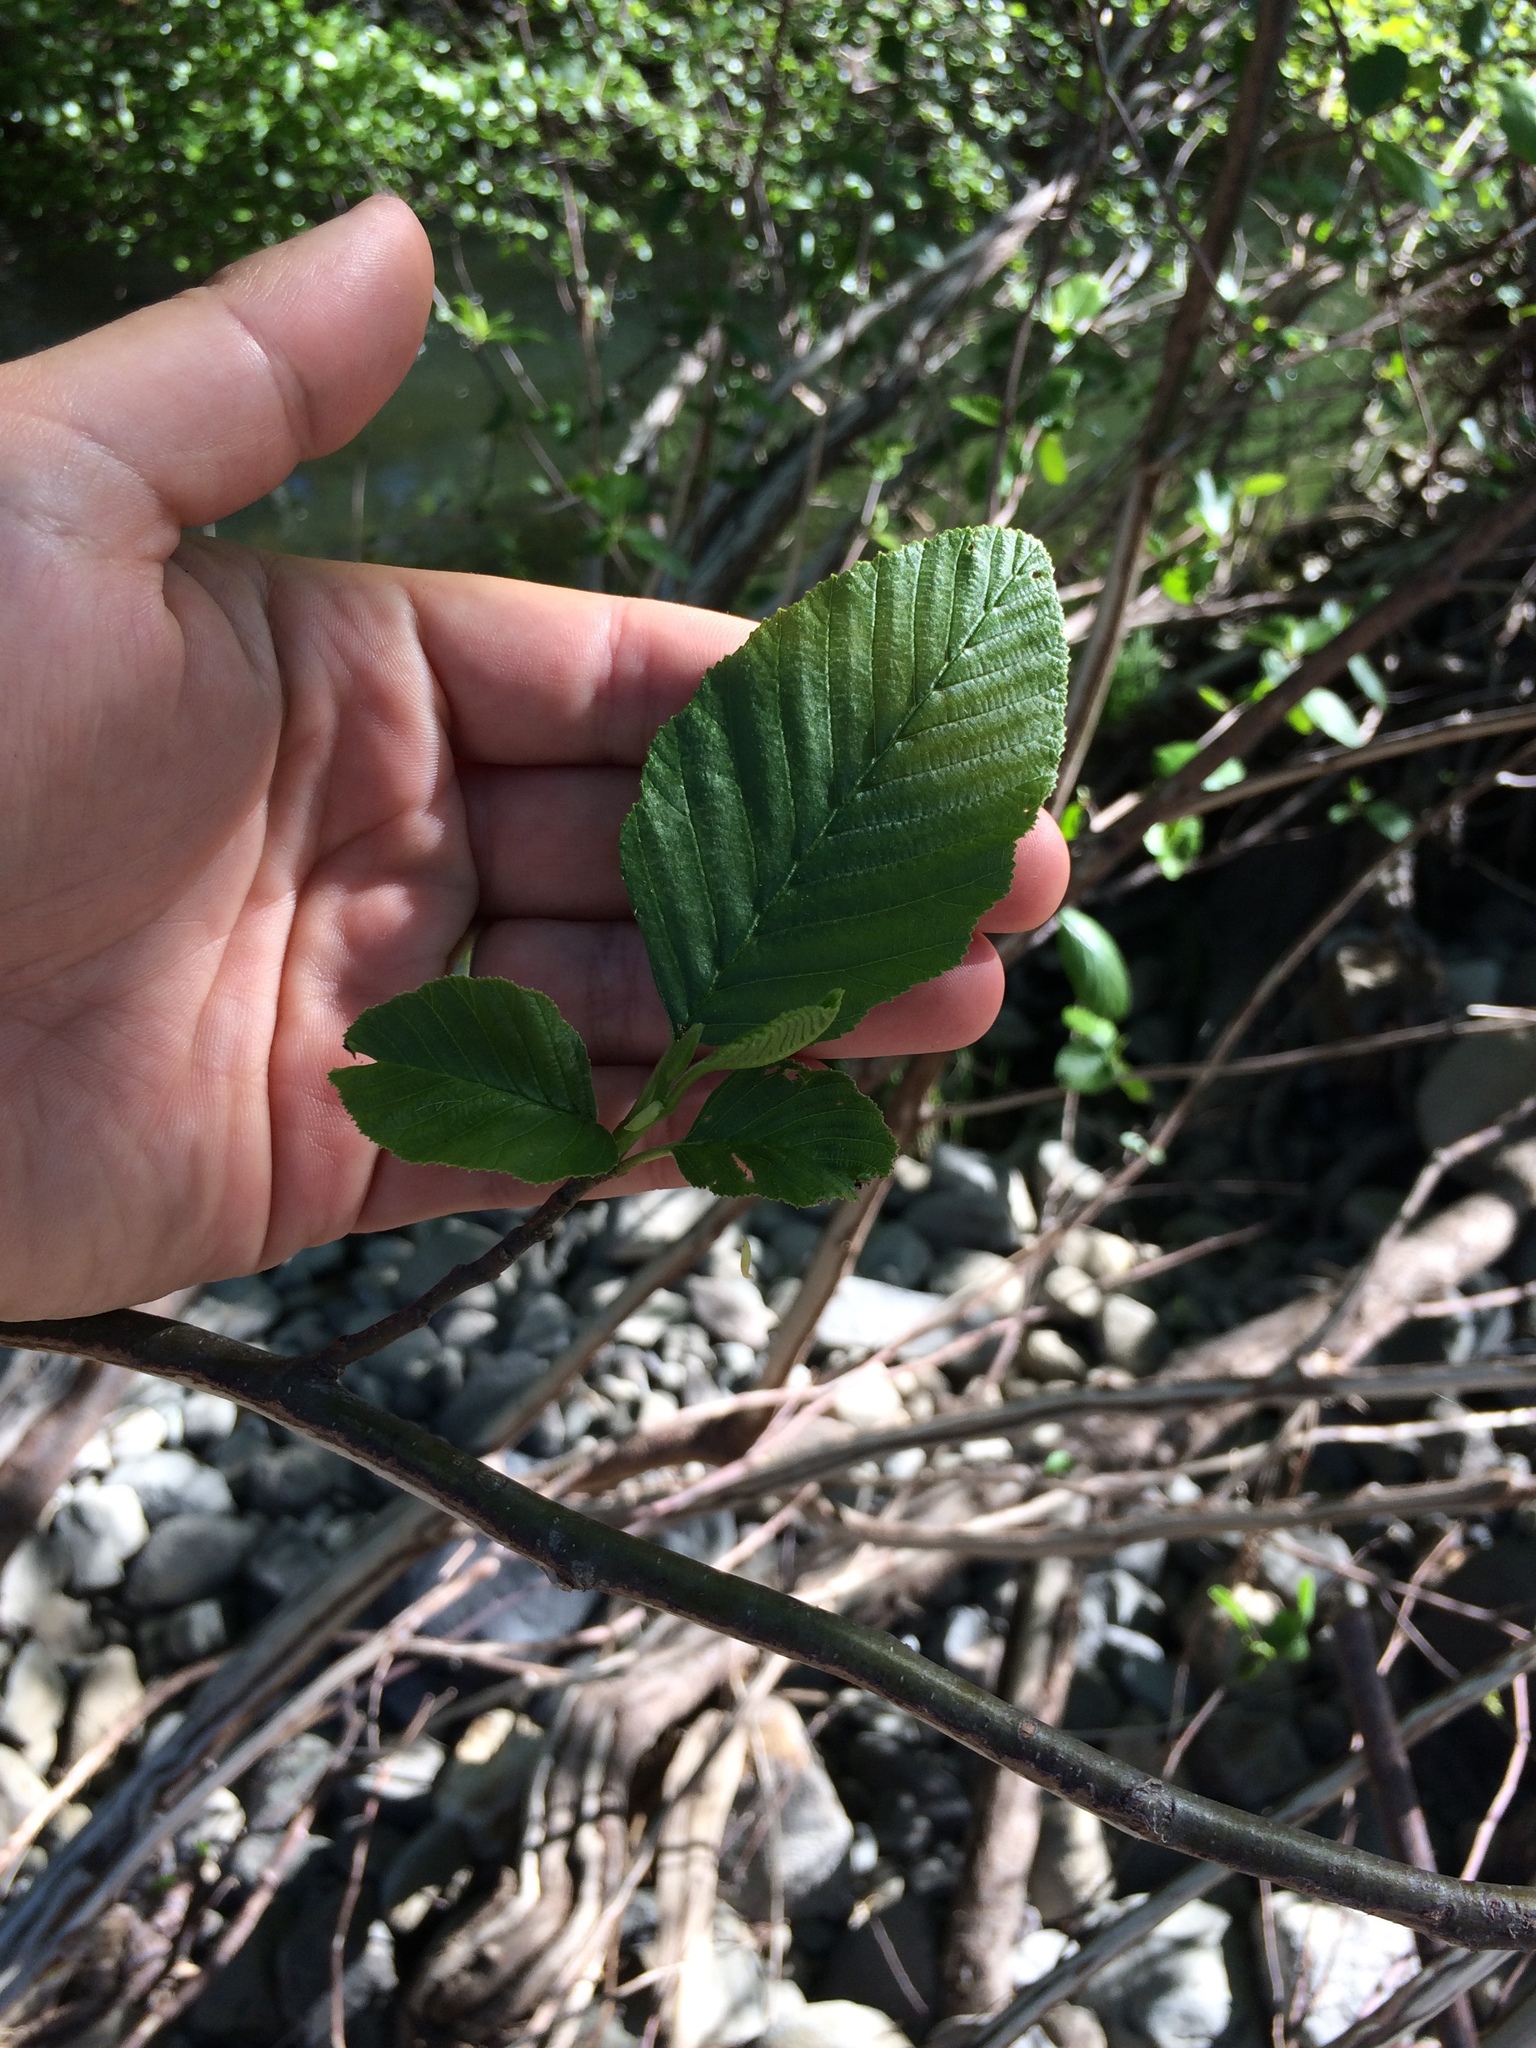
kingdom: Plantae
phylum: Tracheophyta
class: Magnoliopsida
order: Fagales
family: Betulaceae
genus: Alnus
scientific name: Alnus rhombifolia
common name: California alder
